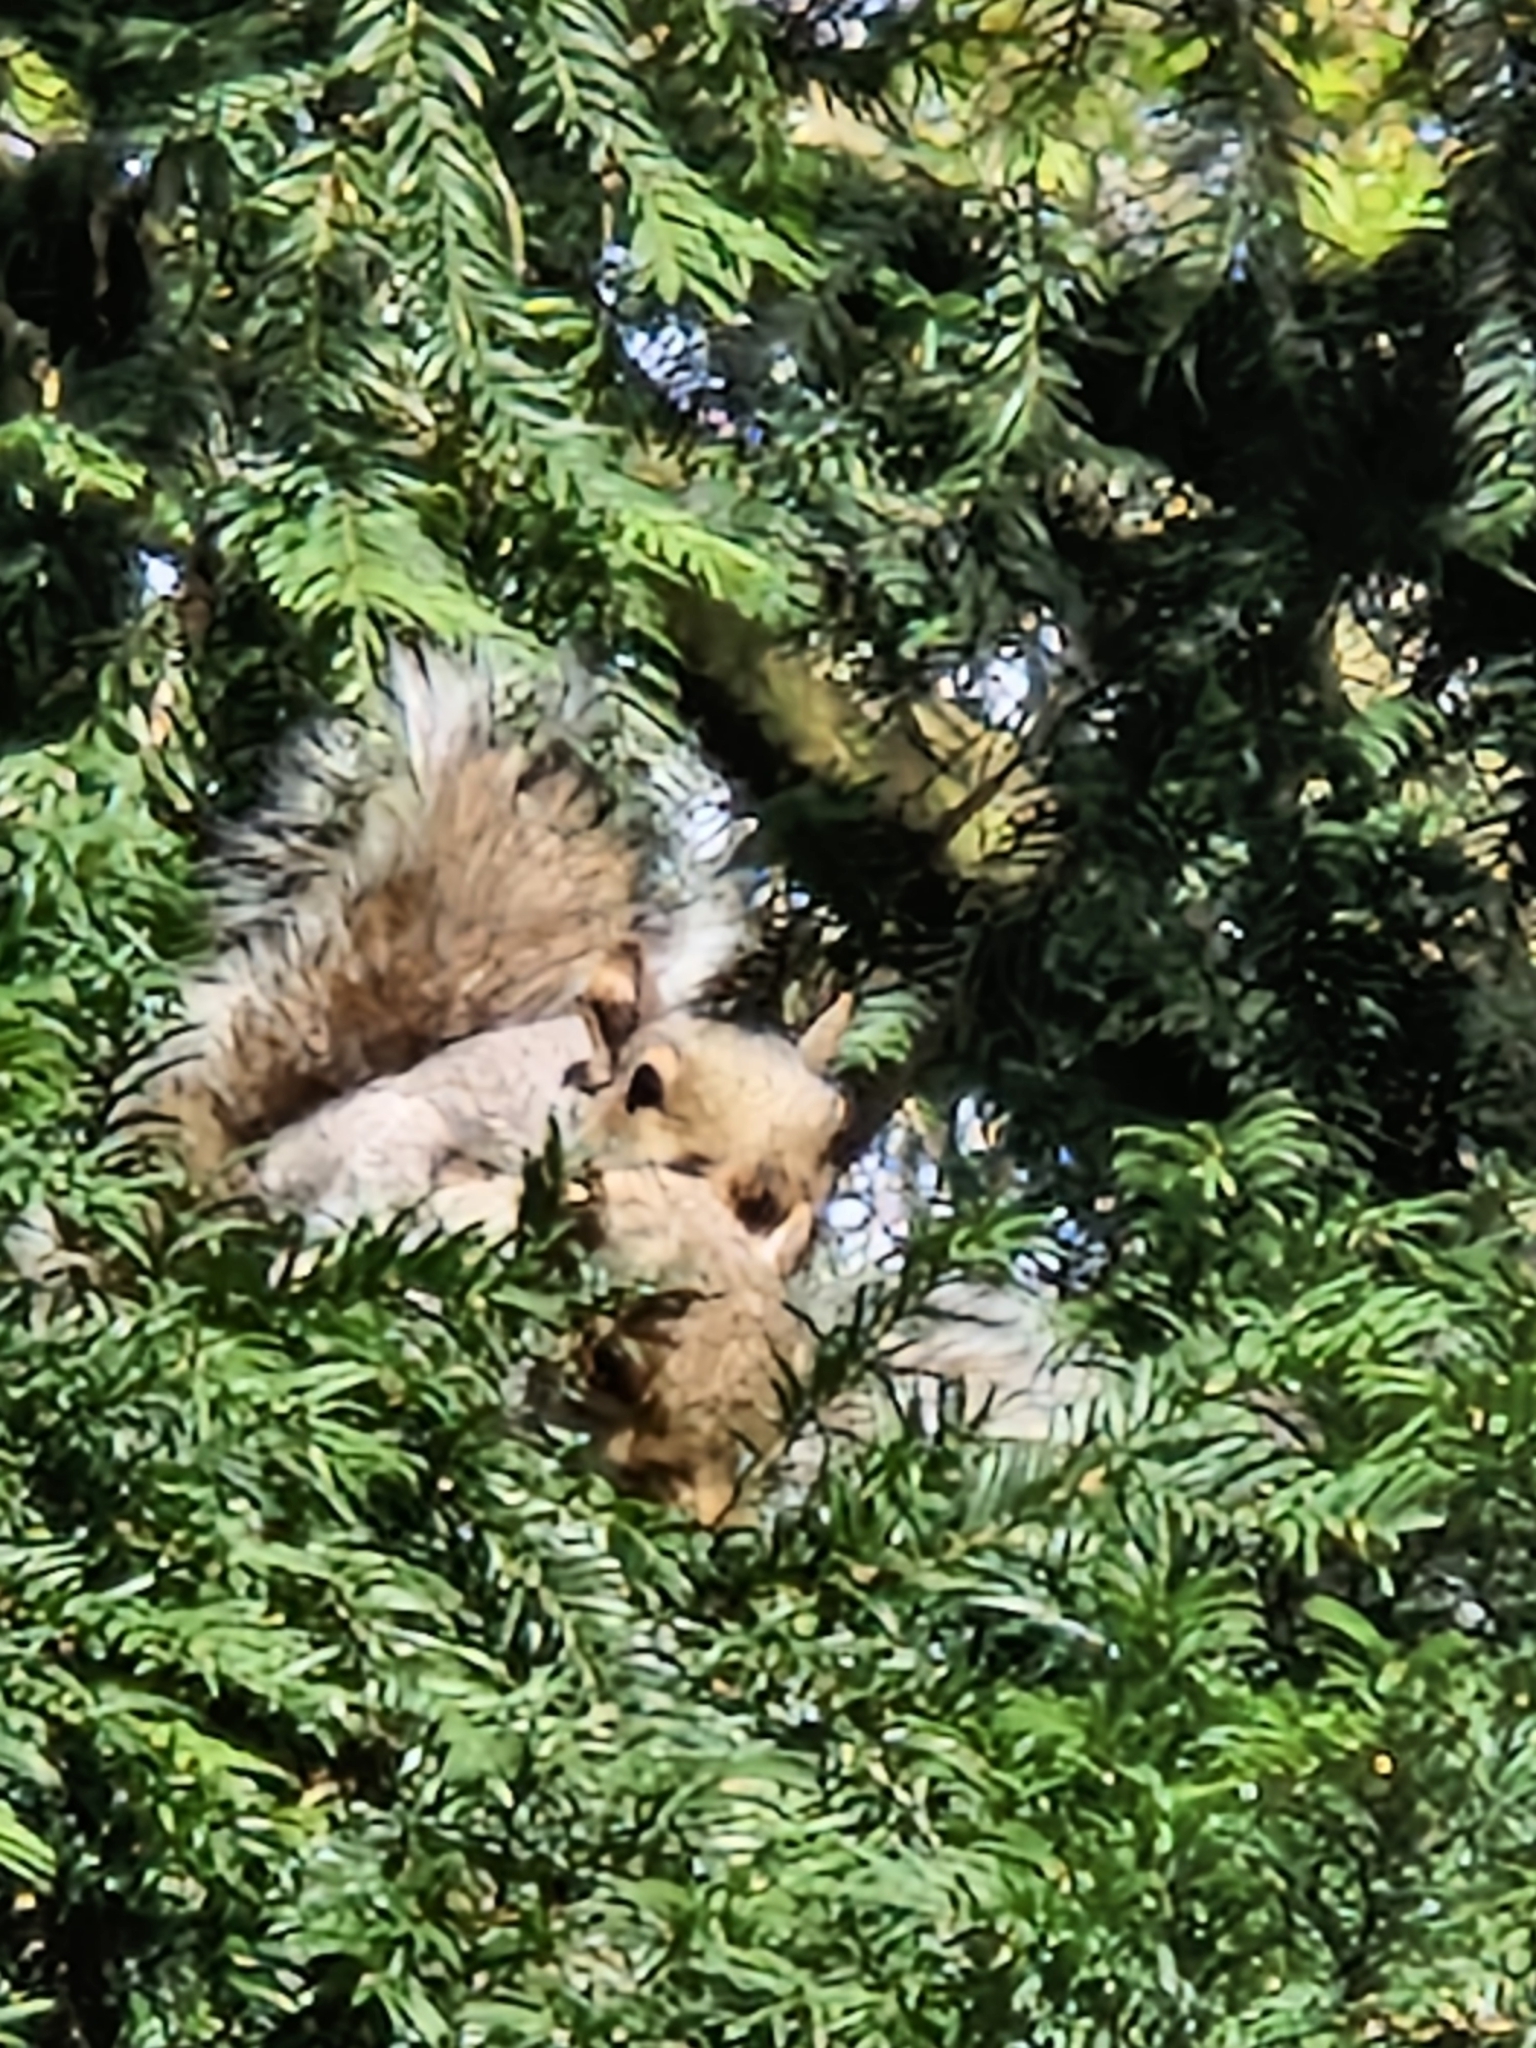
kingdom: Animalia
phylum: Chordata
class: Mammalia
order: Rodentia
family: Sciuridae
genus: Sciurus
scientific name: Sciurus carolinensis
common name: Eastern gray squirrel
